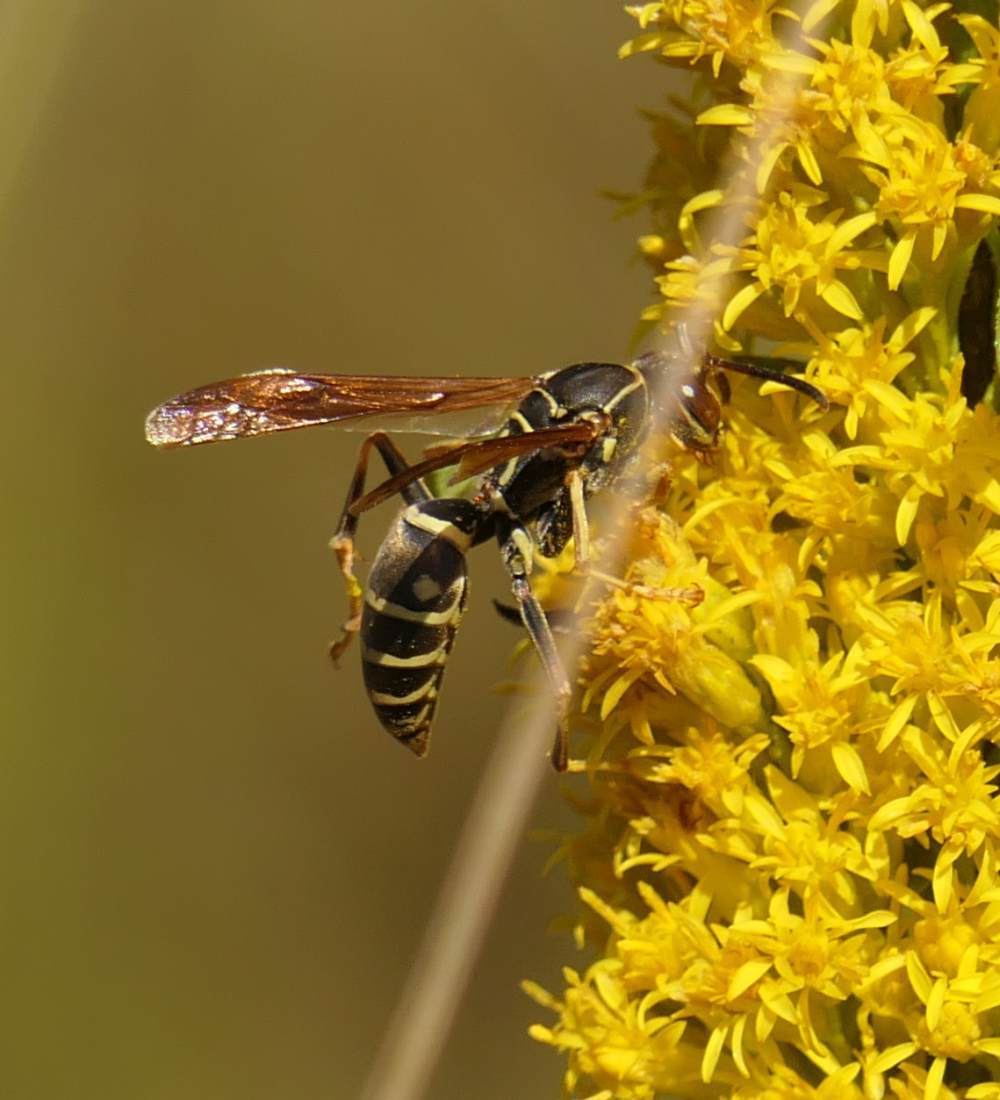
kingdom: Animalia
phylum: Arthropoda
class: Insecta
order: Hymenoptera
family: Eumenidae
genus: Polistes
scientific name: Polistes fuscatus
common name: Dark paper wasp
